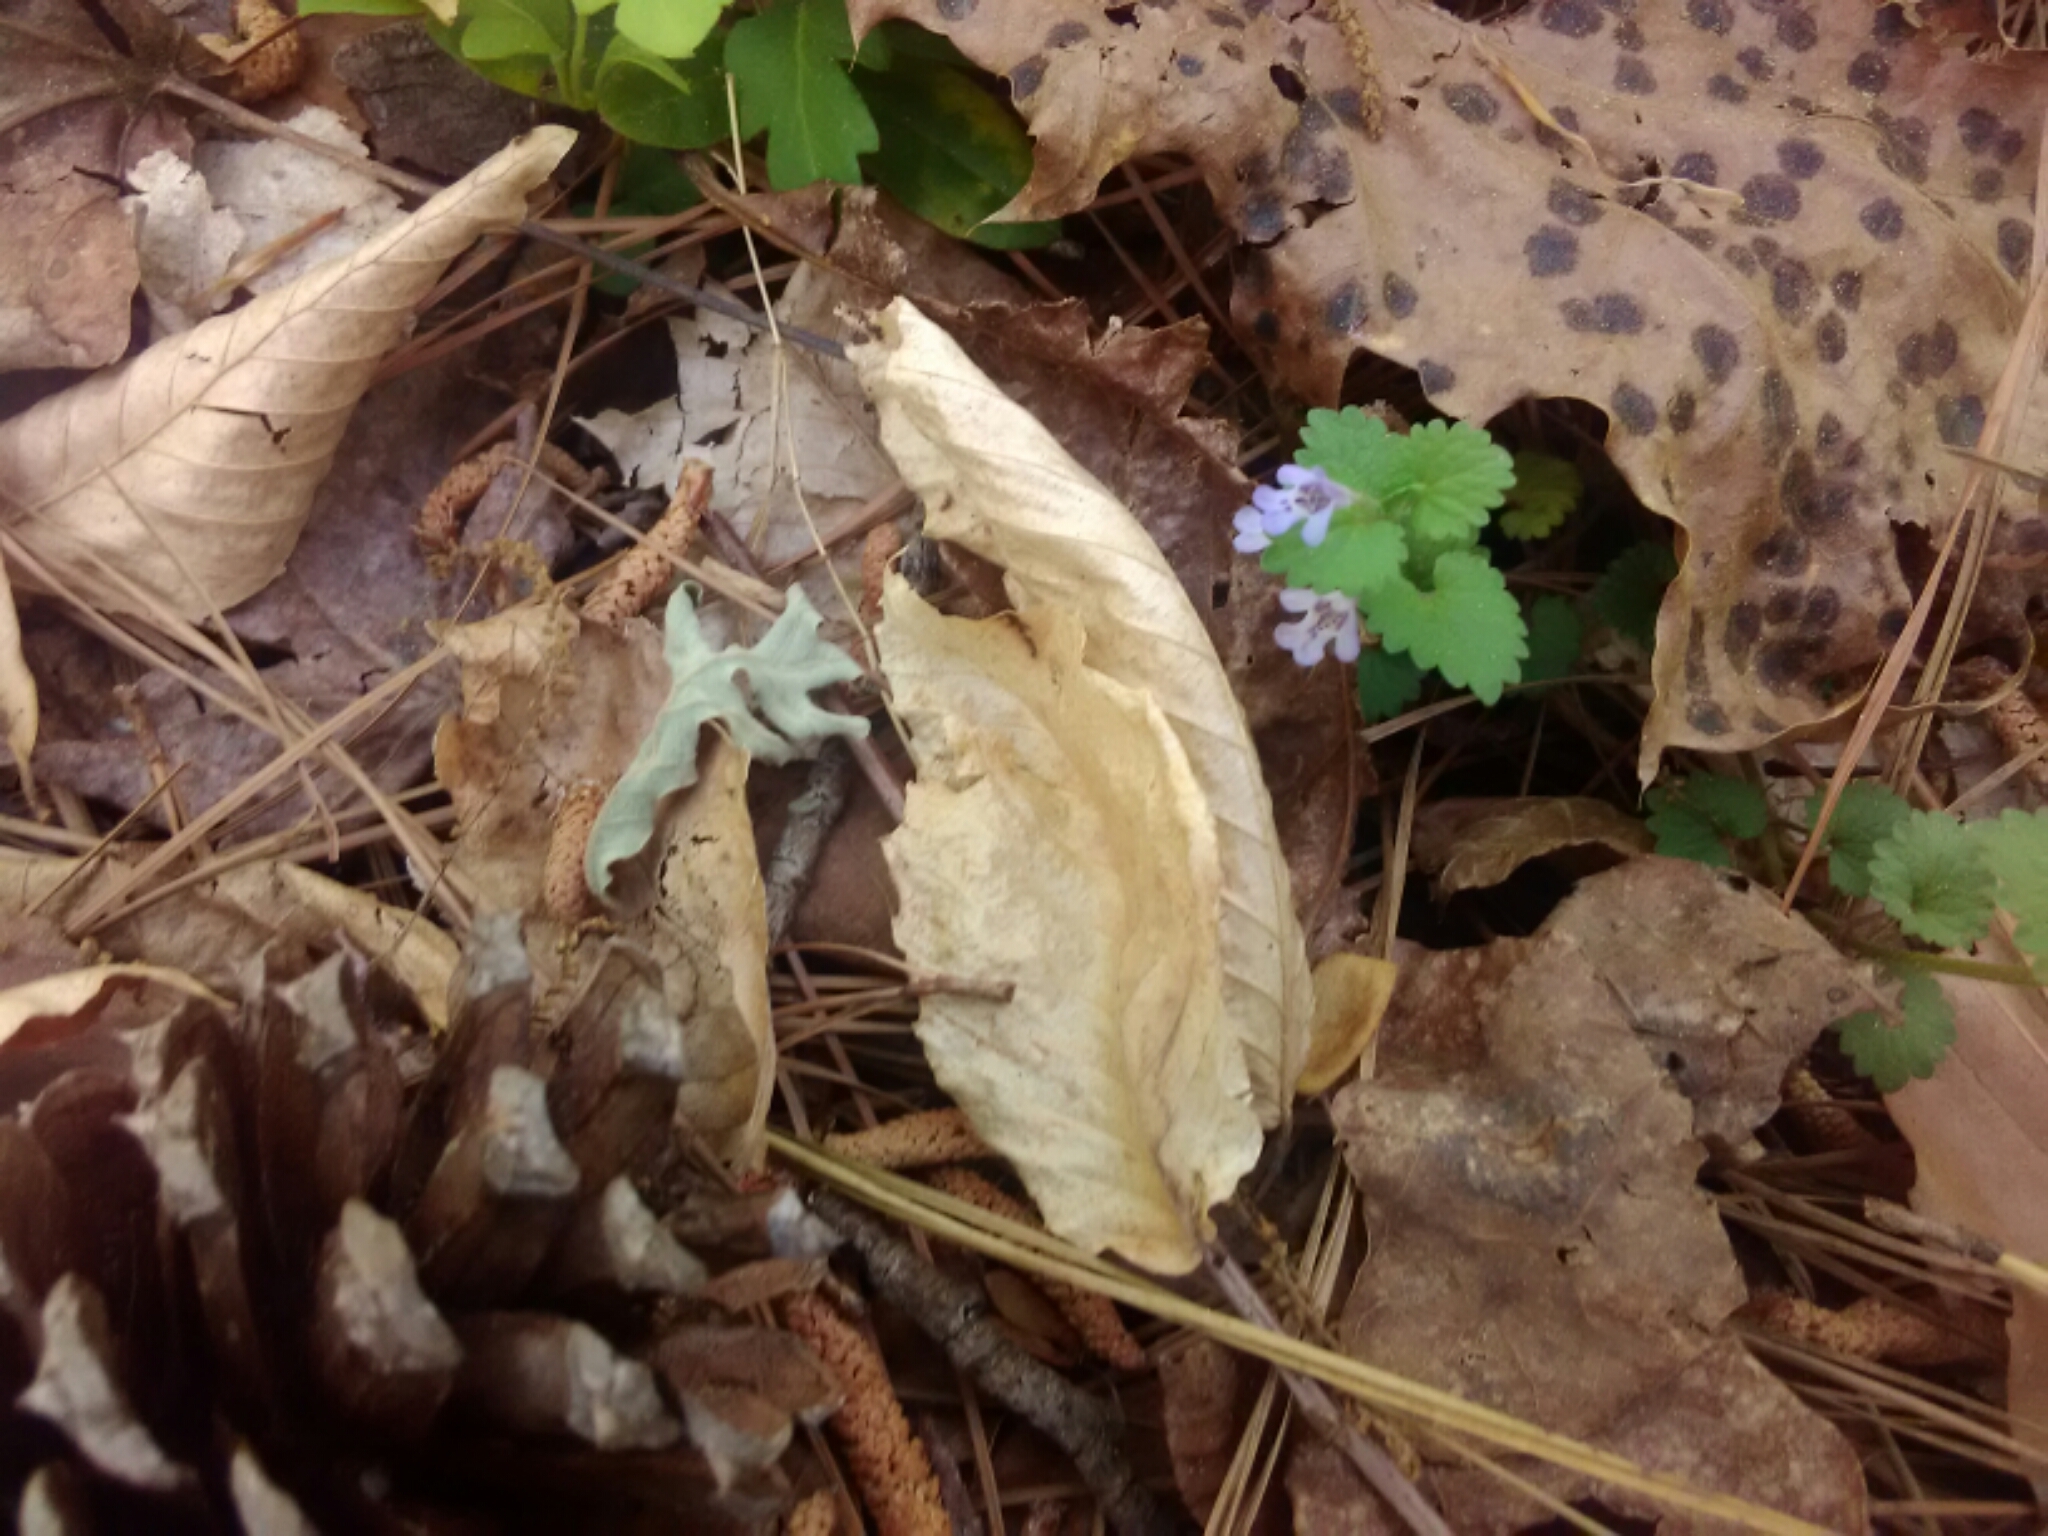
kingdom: Plantae
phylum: Tracheophyta
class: Magnoliopsida
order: Lamiales
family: Lamiaceae
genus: Glechoma
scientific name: Glechoma hederacea
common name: Ground ivy
